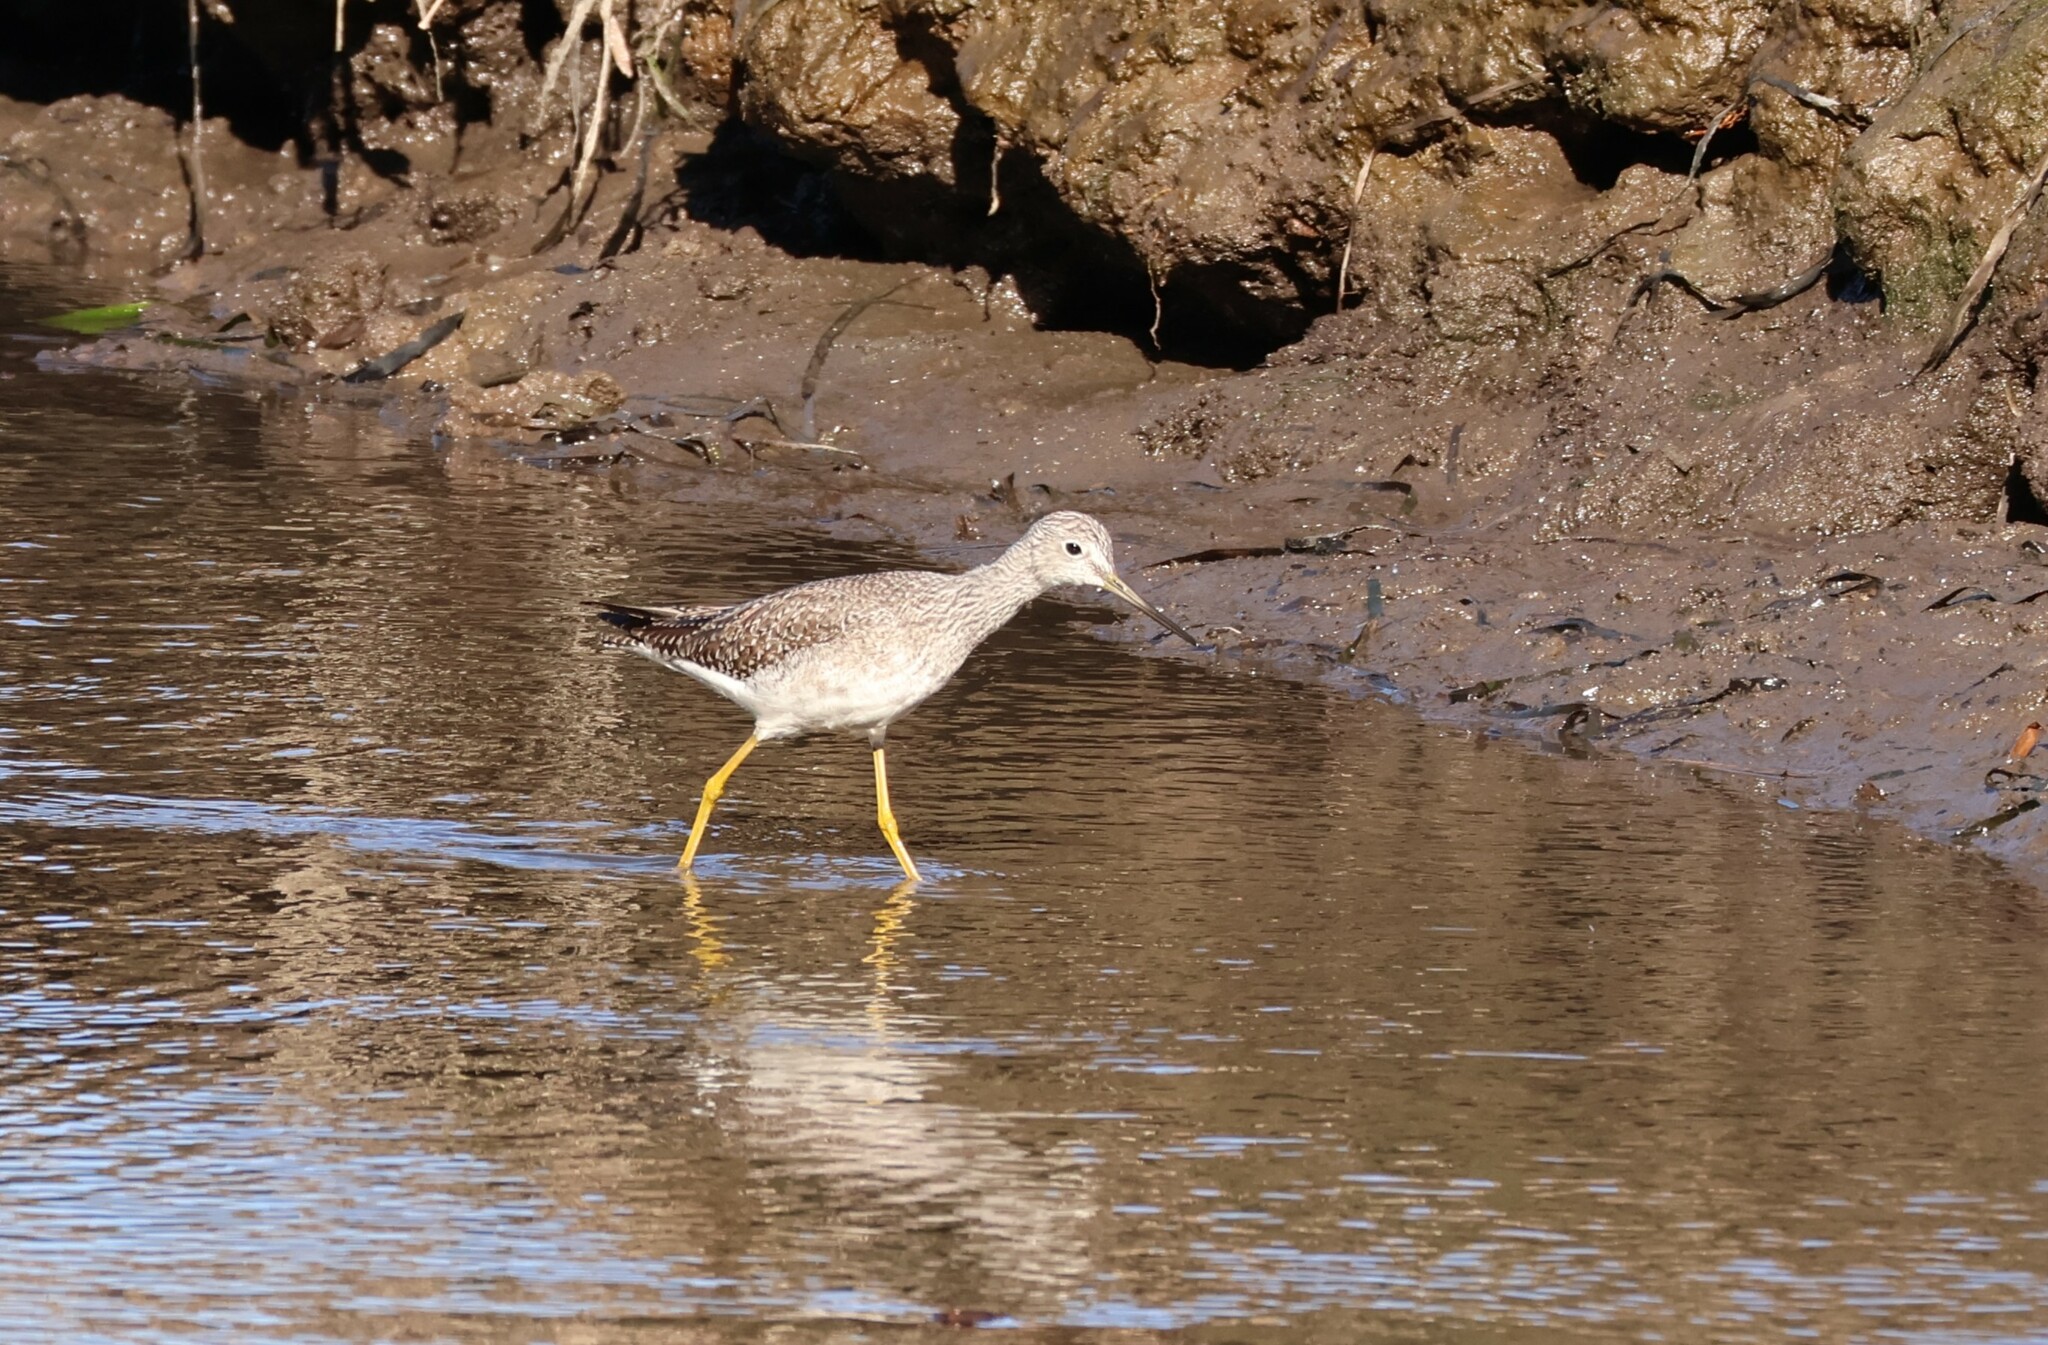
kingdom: Animalia
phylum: Chordata
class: Aves
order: Charadriiformes
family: Scolopacidae
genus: Tringa
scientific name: Tringa melanoleuca
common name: Greater yellowlegs
